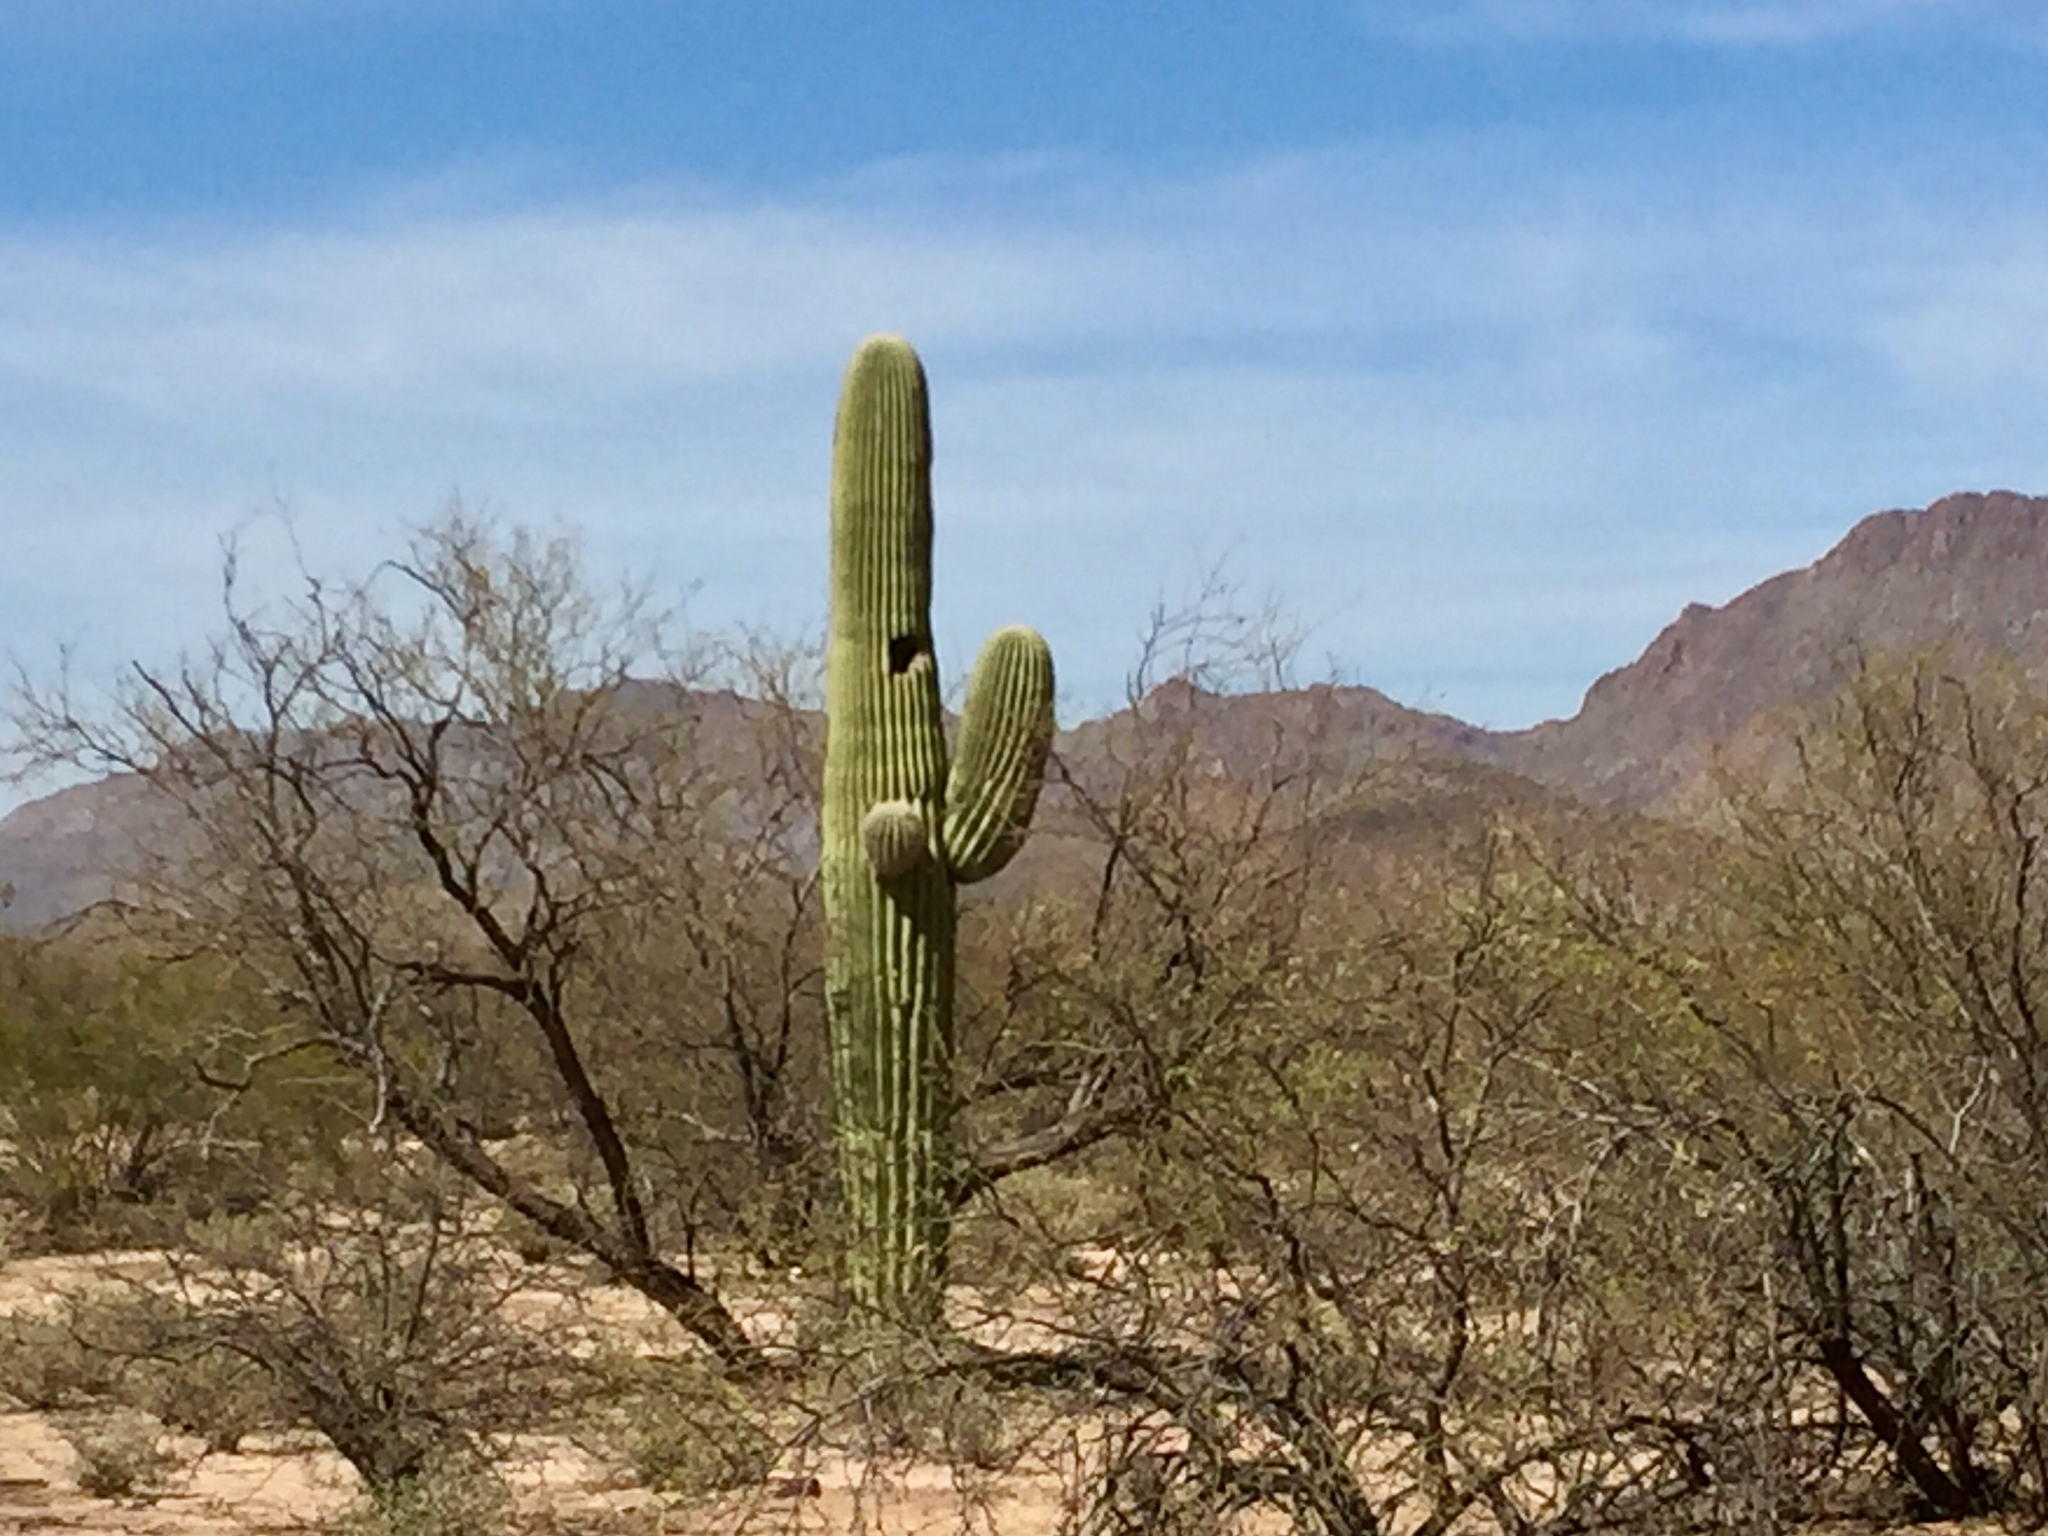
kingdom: Plantae
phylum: Tracheophyta
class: Magnoliopsida
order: Caryophyllales
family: Cactaceae
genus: Carnegiea
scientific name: Carnegiea gigantea
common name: Saguaro
